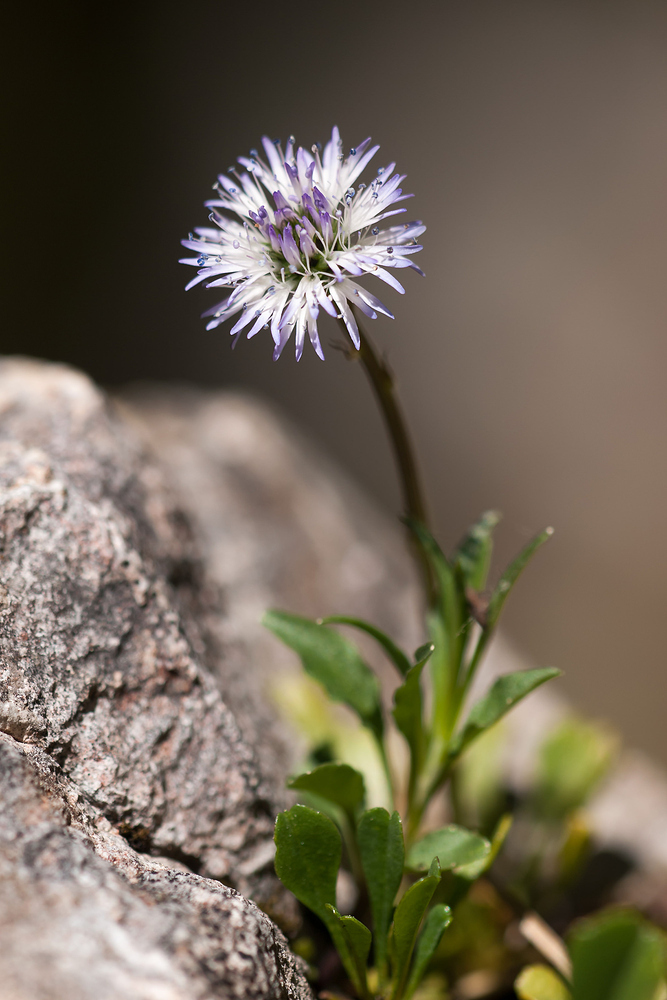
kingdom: Plantae
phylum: Tracheophyta
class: Magnoliopsida
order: Lamiales
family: Plantaginaceae
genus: Globularia
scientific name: Globularia cordifolia
